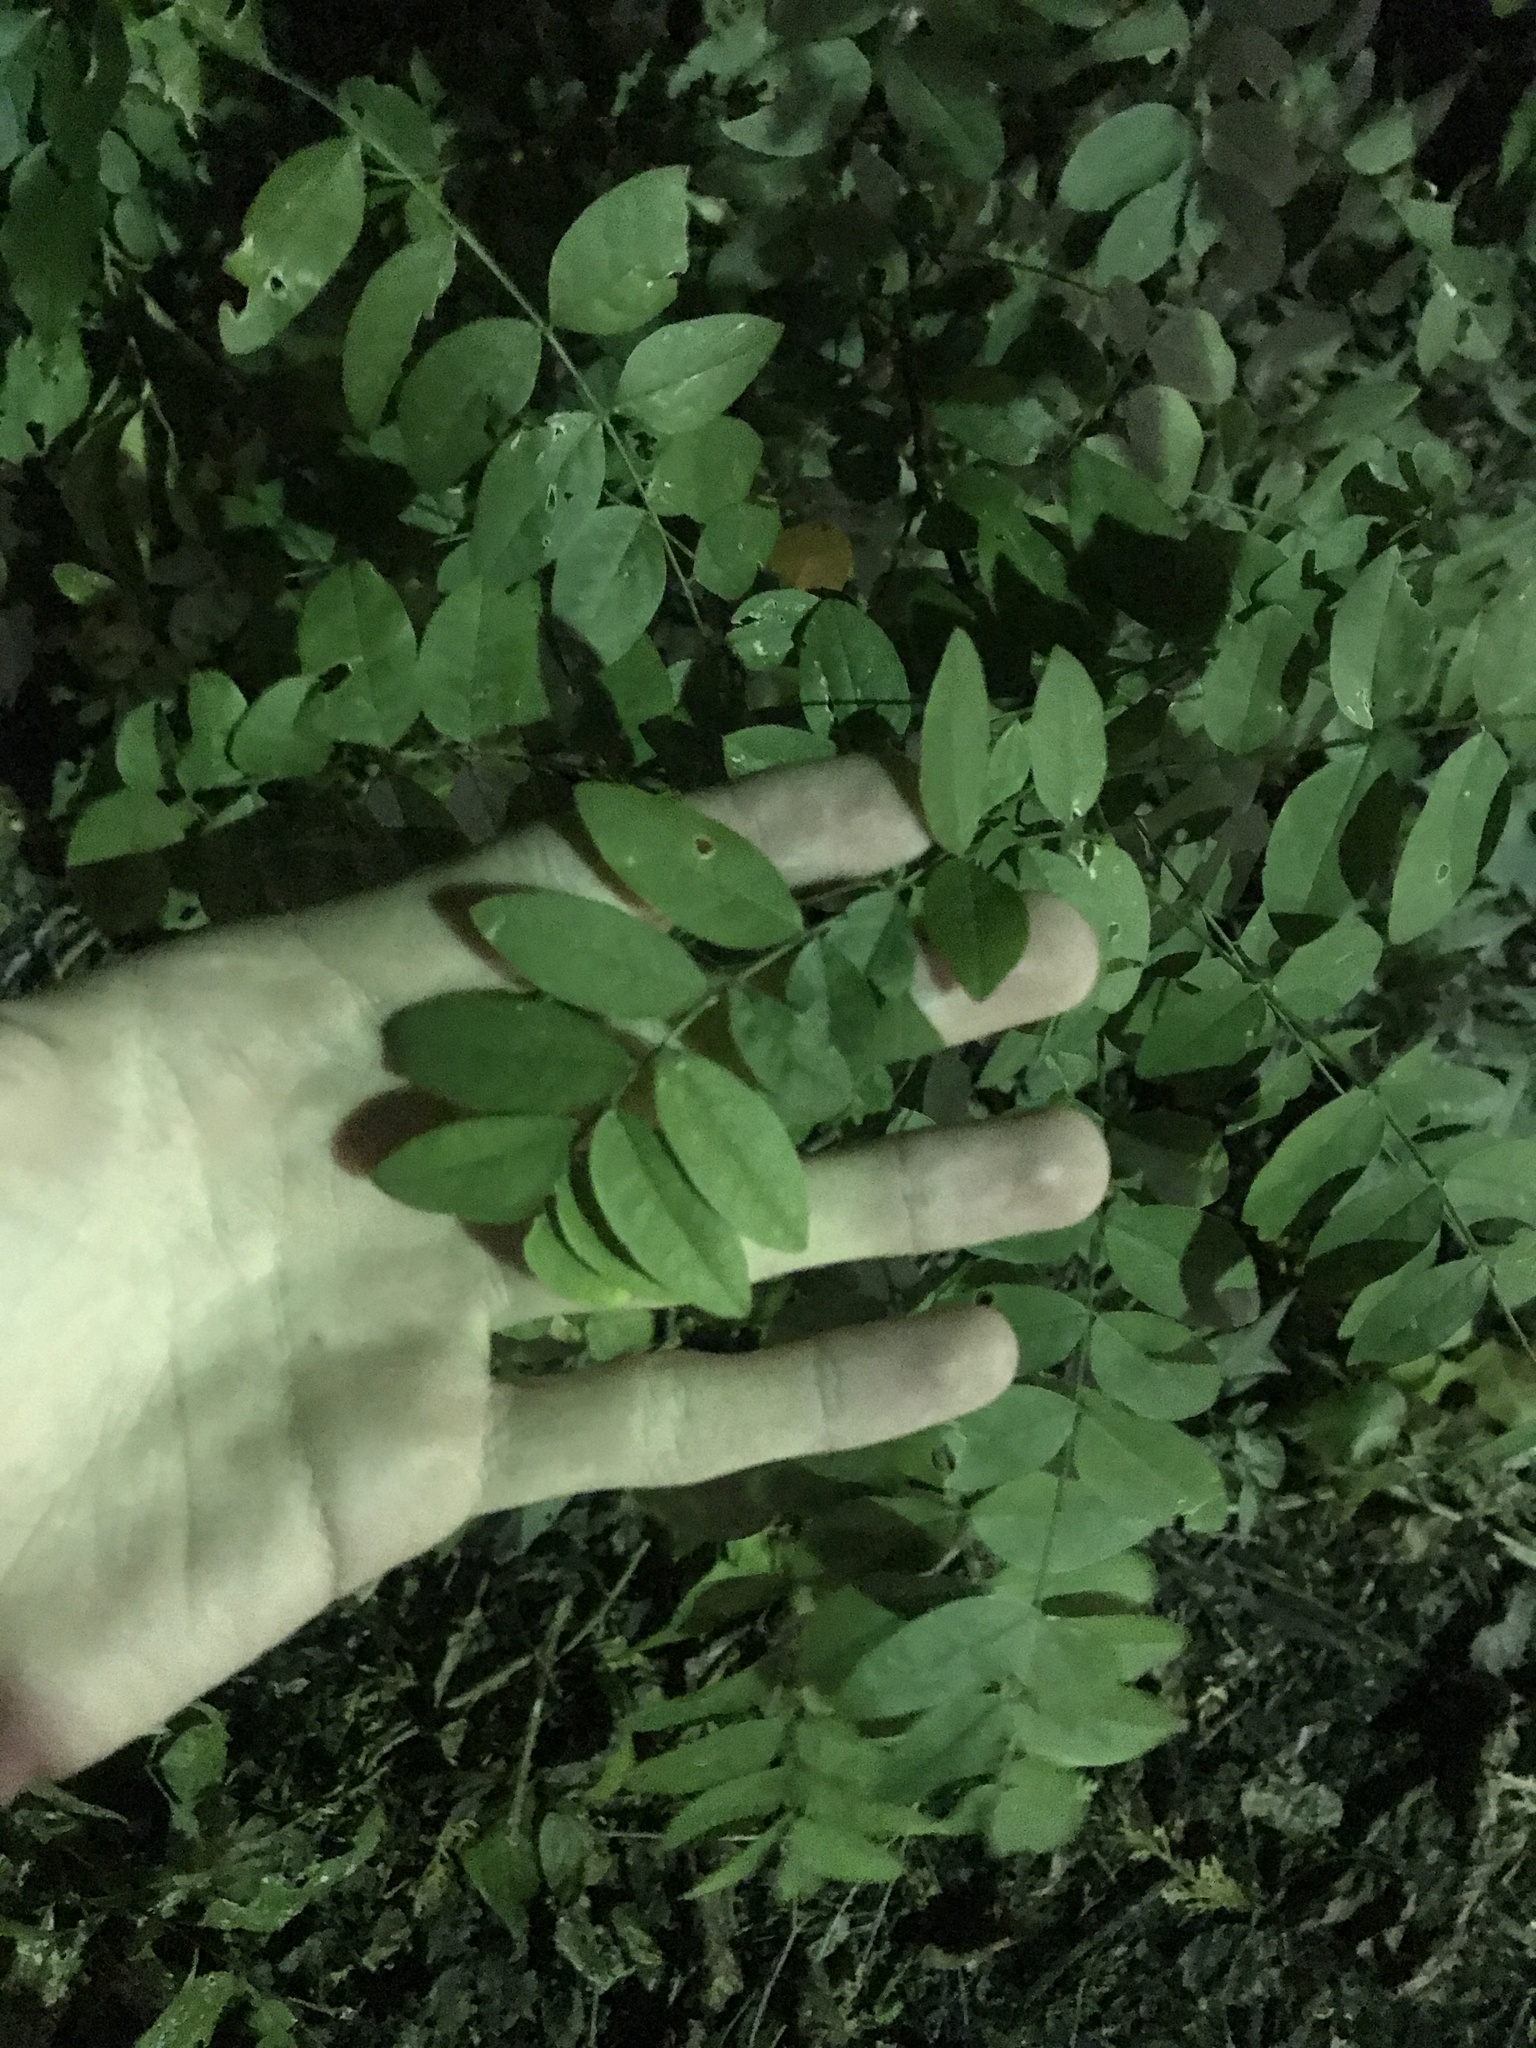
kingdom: Plantae
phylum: Tracheophyta
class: Magnoliopsida
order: Fabales
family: Fabaceae
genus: Robinia
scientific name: Robinia pseudoacacia
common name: Black locust
